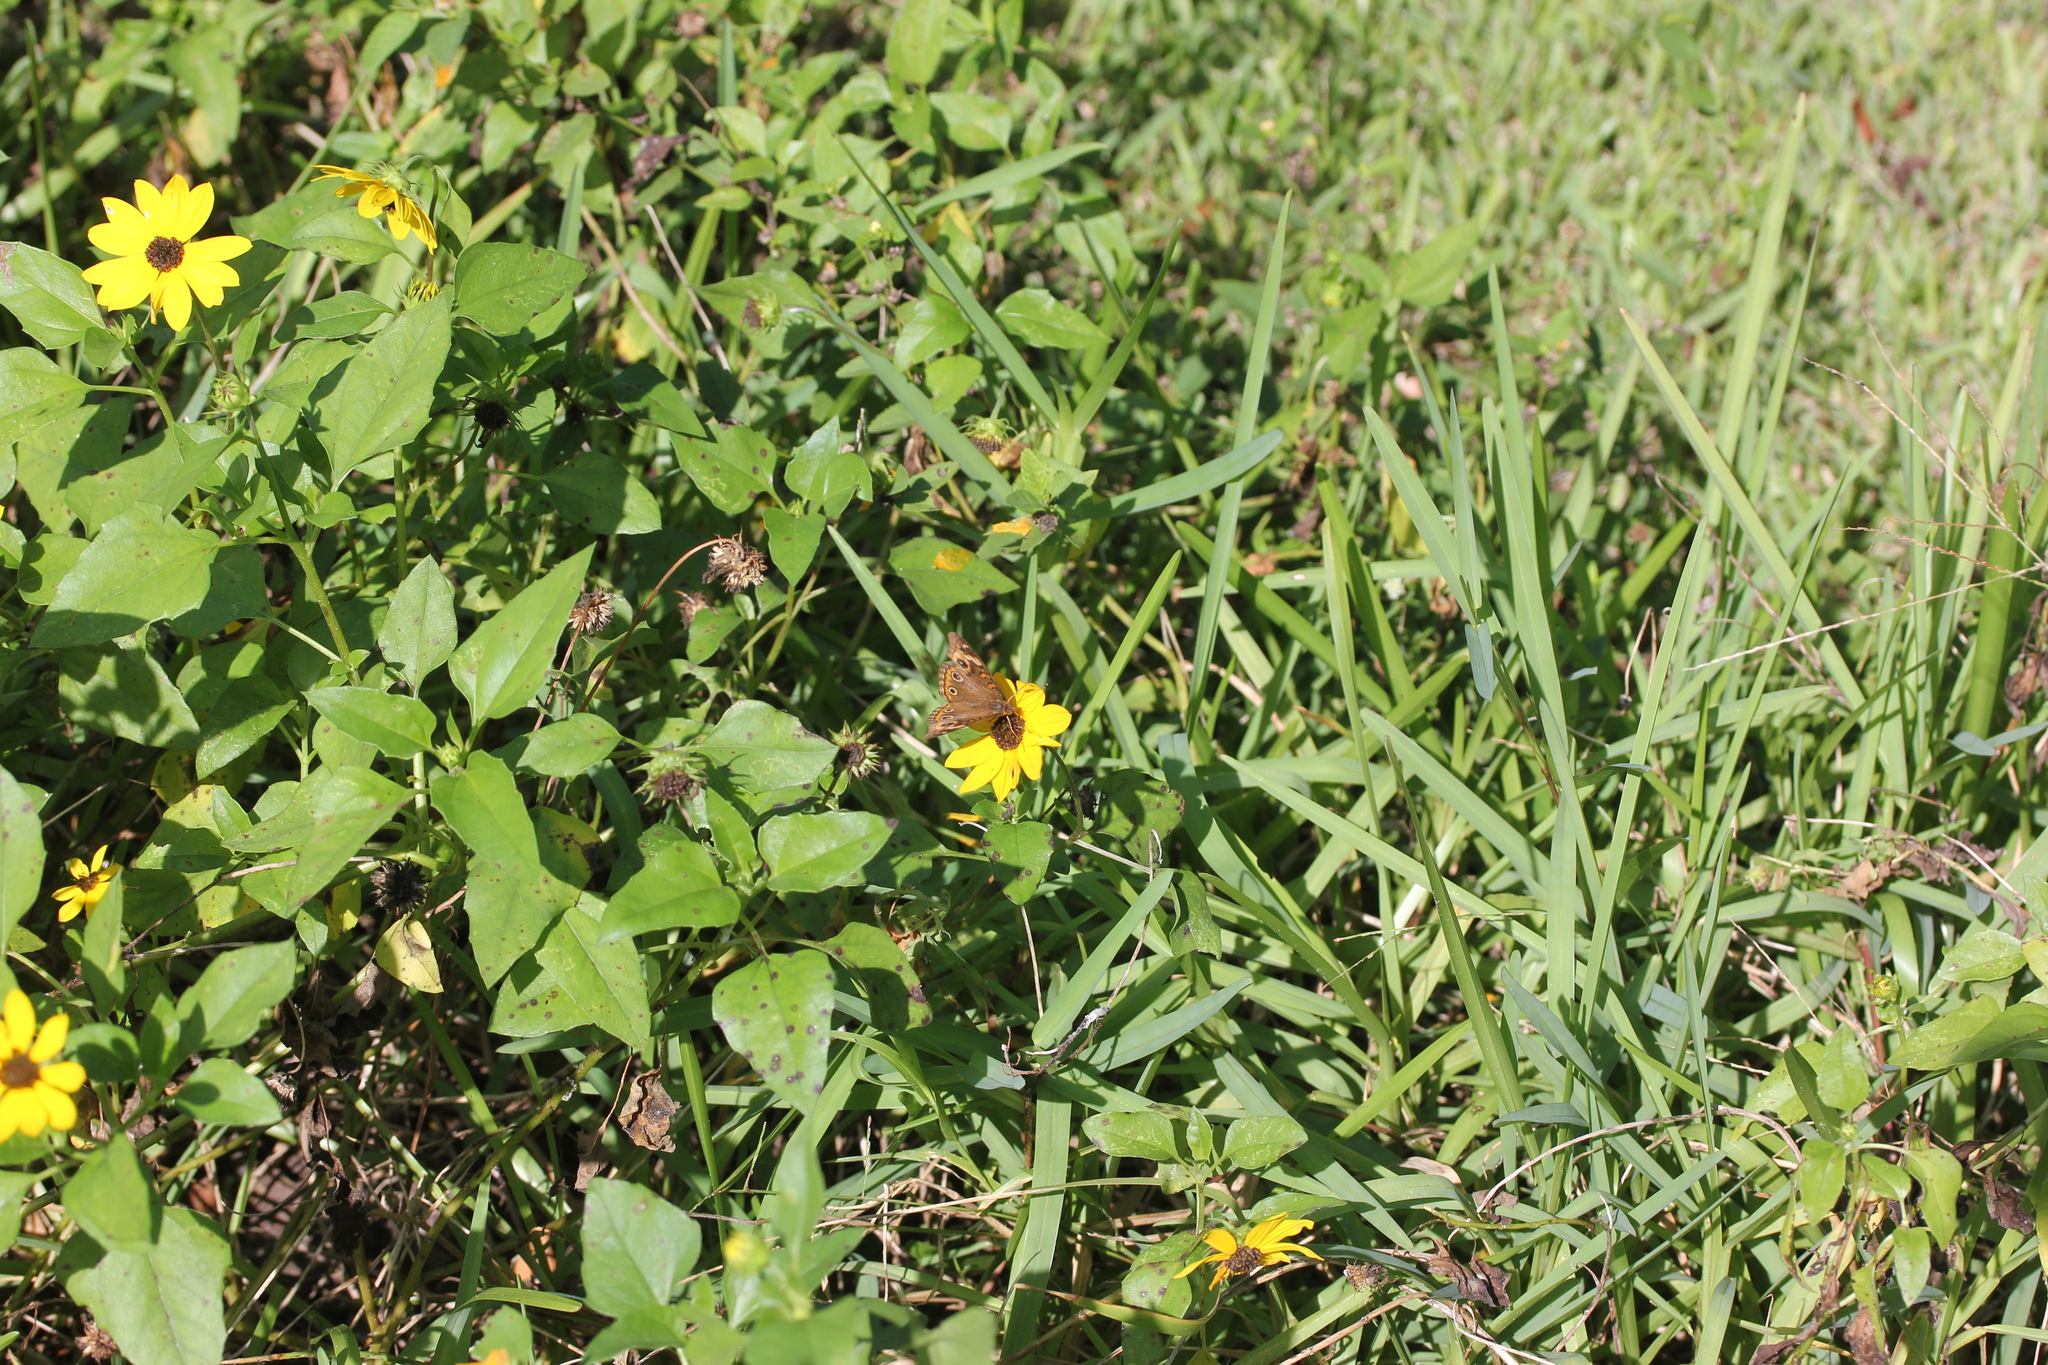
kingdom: Plantae
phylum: Tracheophyta
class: Magnoliopsida
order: Asterales
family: Asteraceae
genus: Helianthus
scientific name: Helianthus debilis
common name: Weak sunflower
